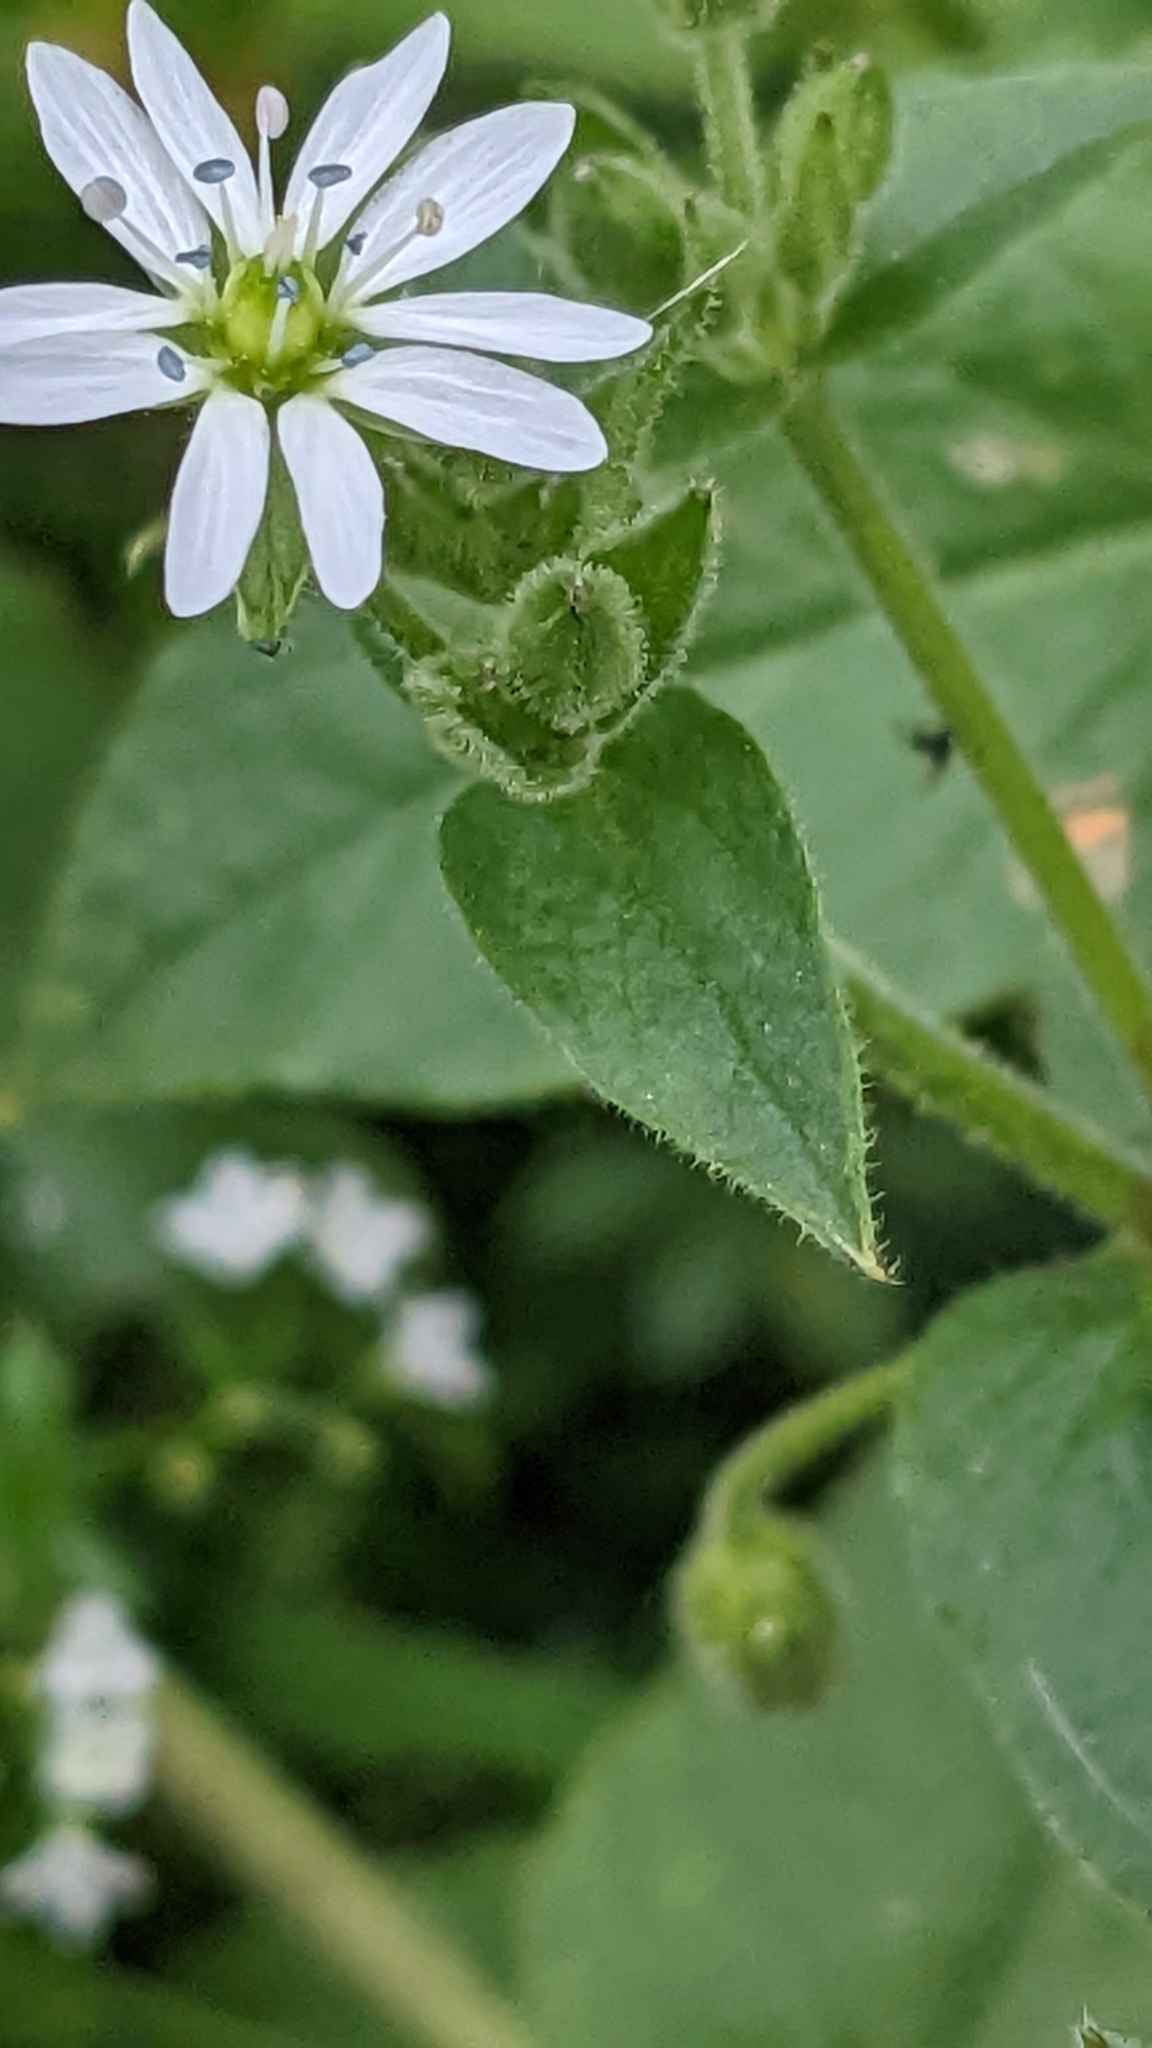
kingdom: Plantae
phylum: Tracheophyta
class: Magnoliopsida
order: Caryophyllales
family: Caryophyllaceae
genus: Stellaria
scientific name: Stellaria aquatica
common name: Water chickweed
